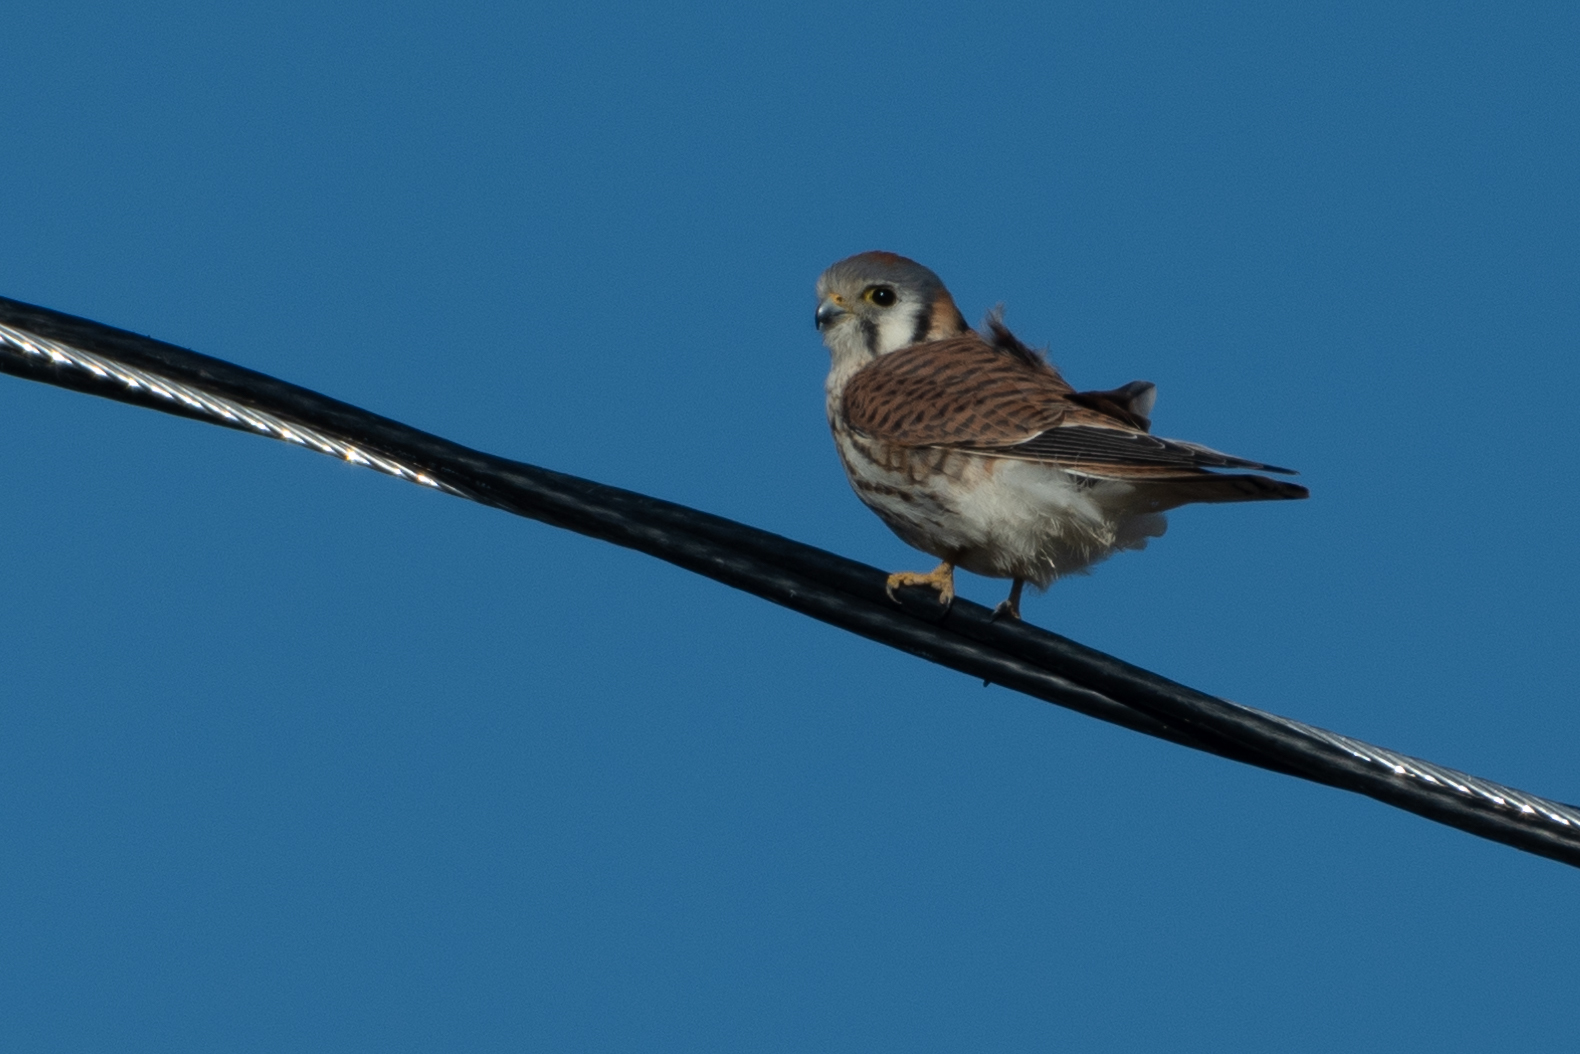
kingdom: Animalia
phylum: Chordata
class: Aves
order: Falconiformes
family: Falconidae
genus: Falco
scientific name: Falco sparverius
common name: American kestrel
